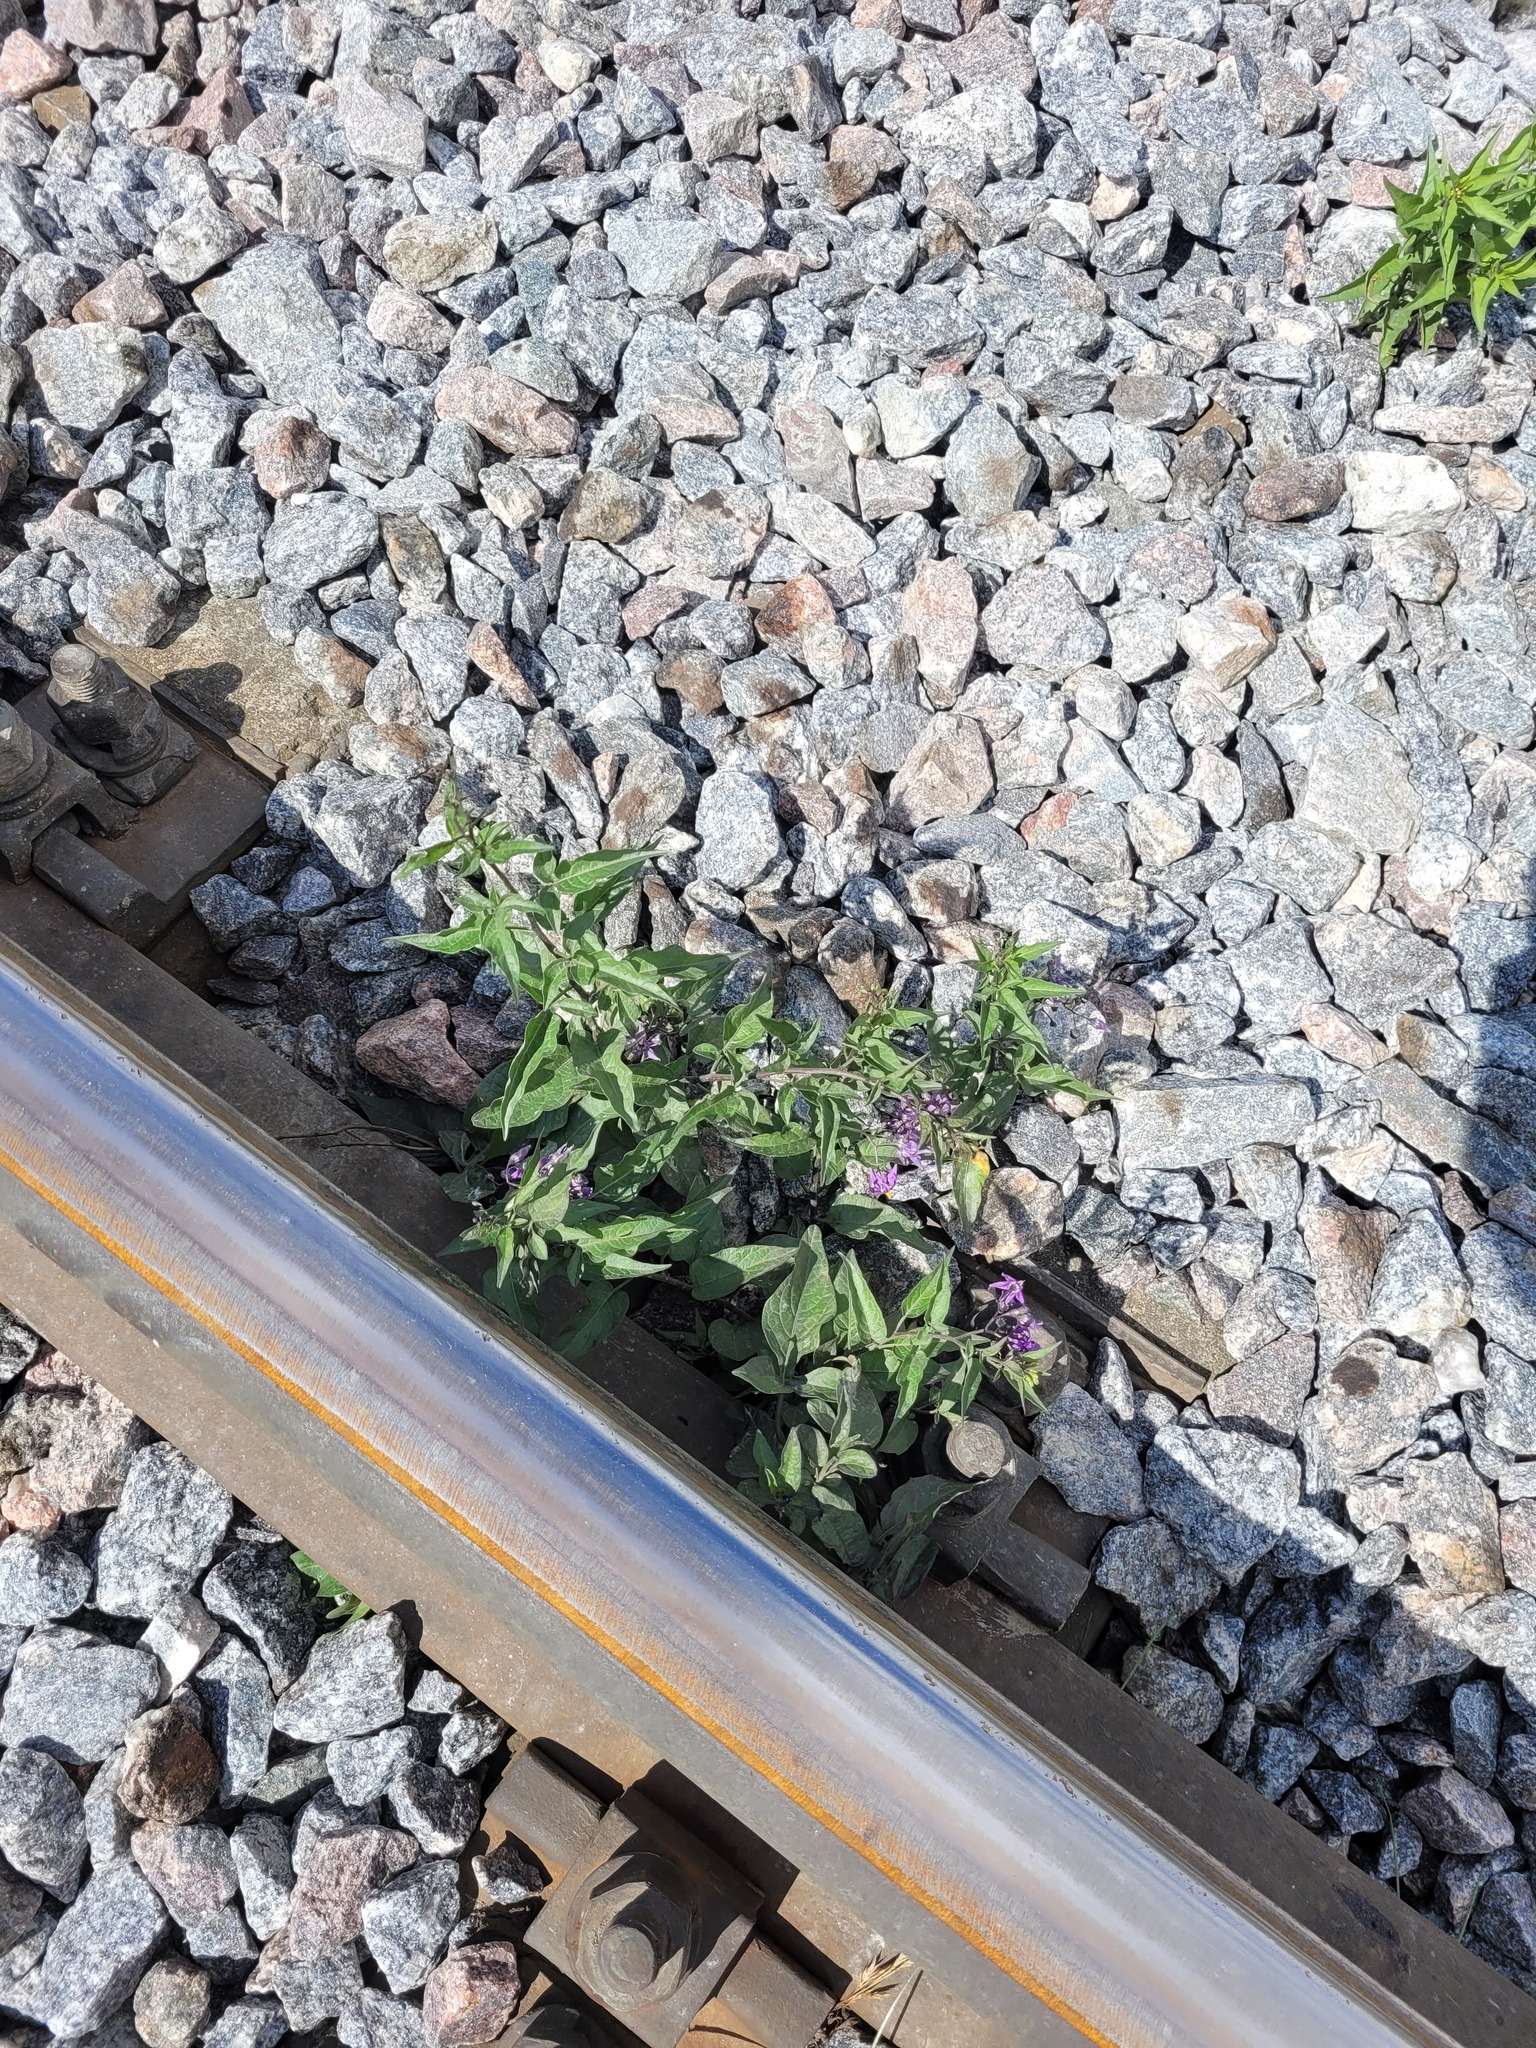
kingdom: Plantae
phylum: Tracheophyta
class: Magnoliopsida
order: Solanales
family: Solanaceae
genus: Solanum
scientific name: Solanum dulcamara
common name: Climbing nightshade
